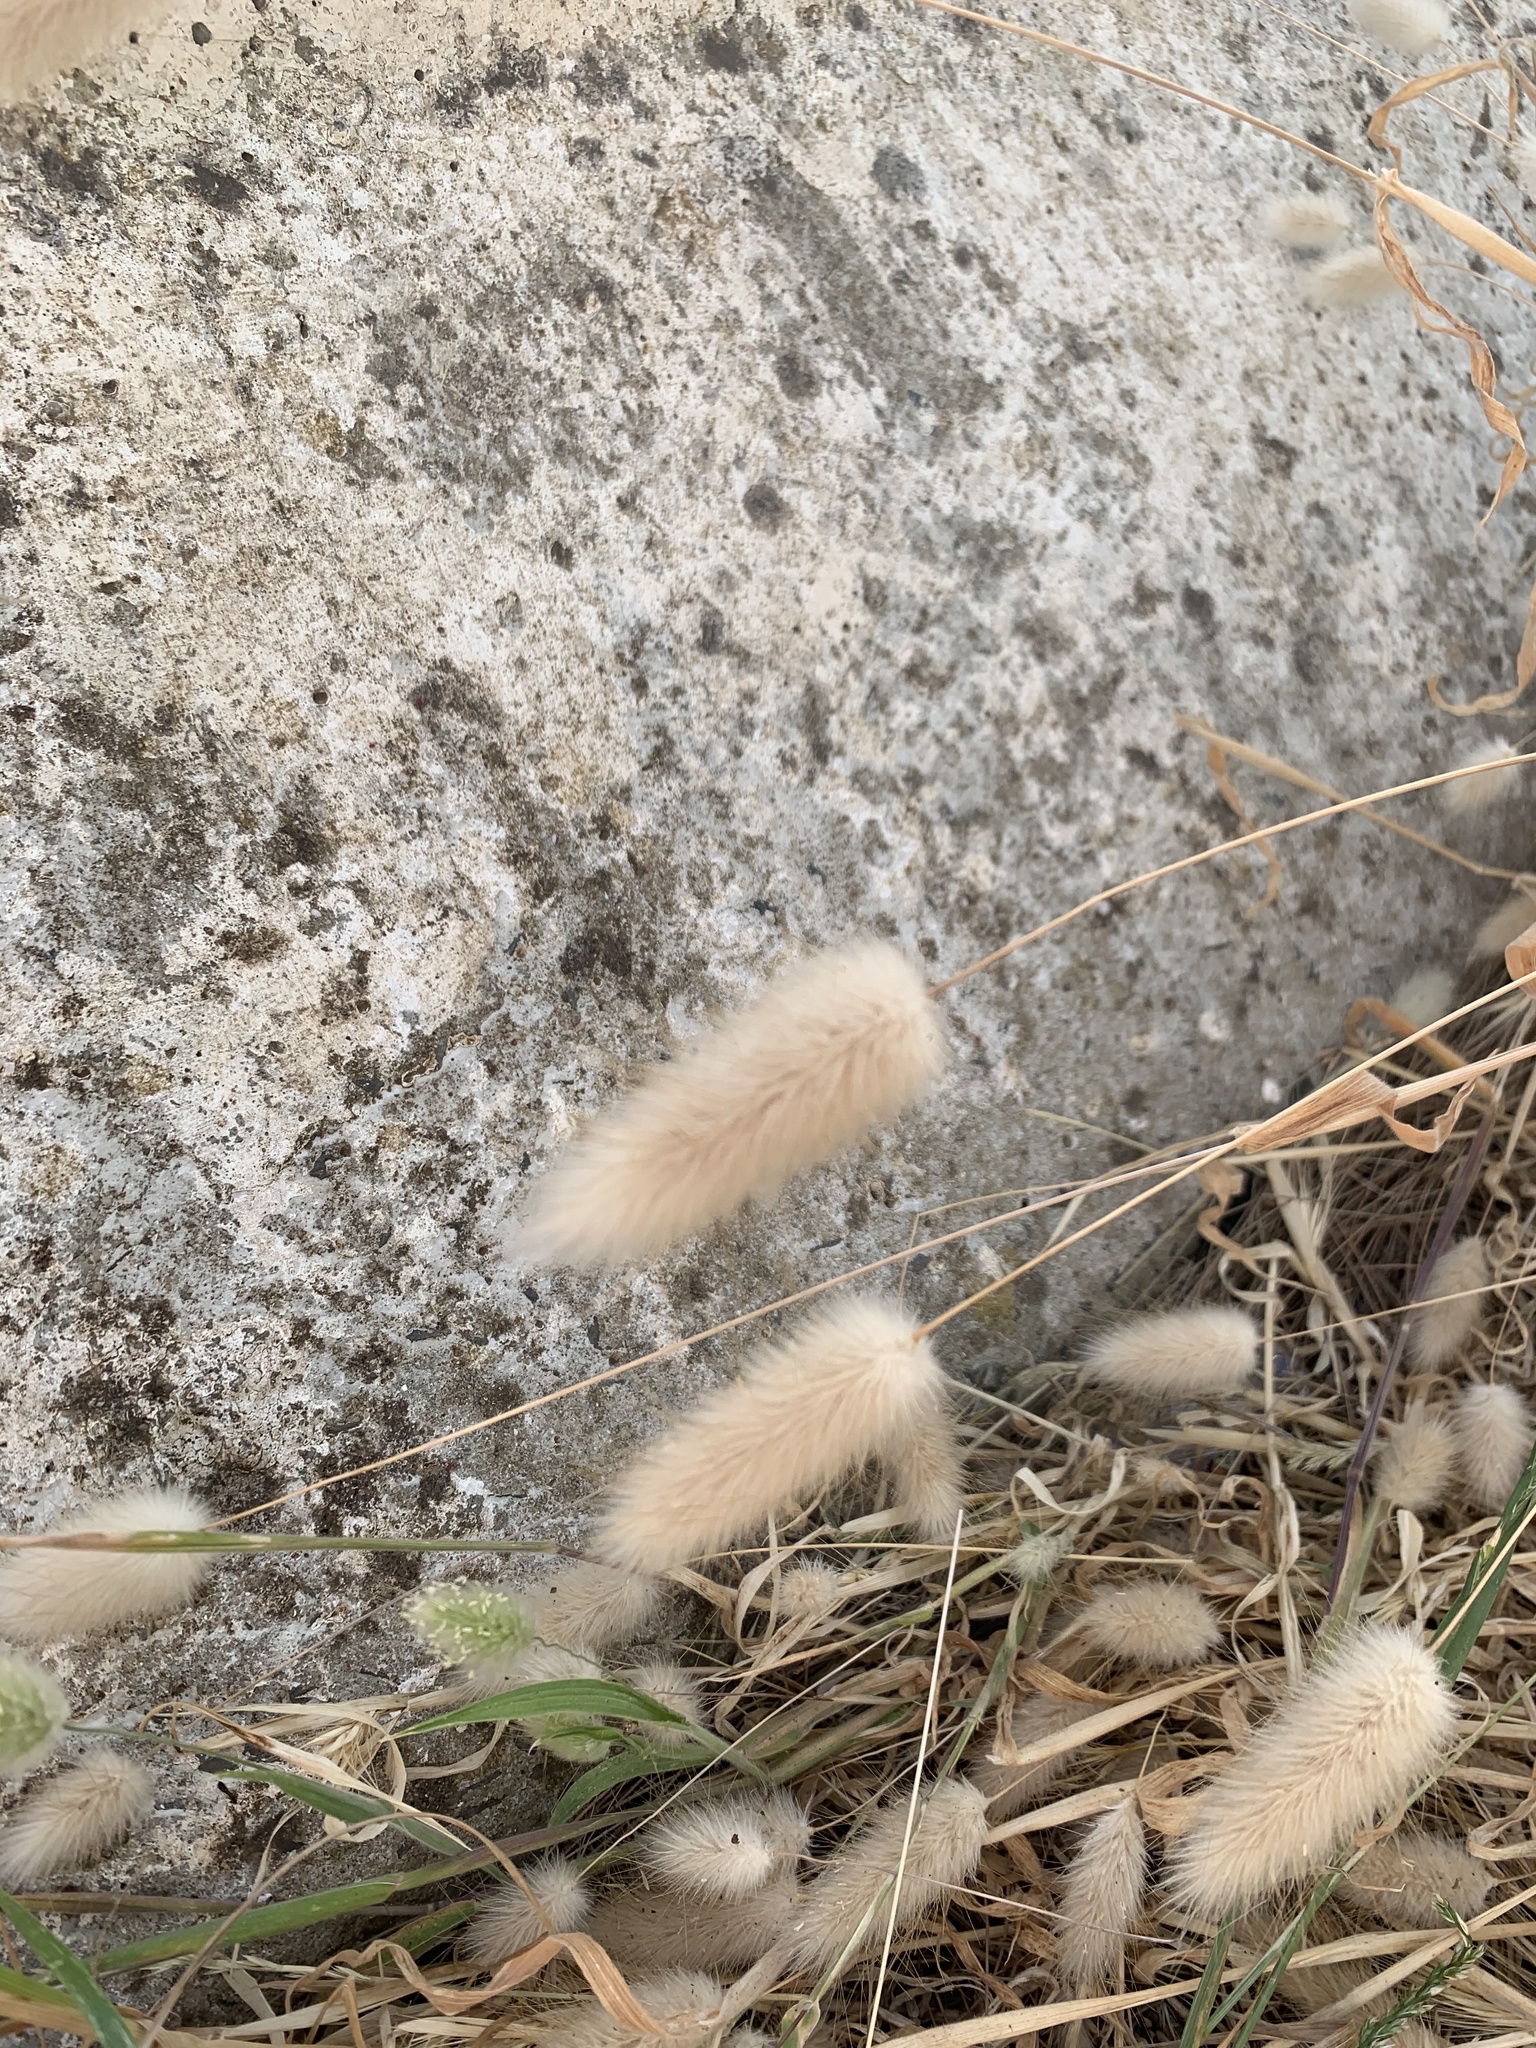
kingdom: Plantae
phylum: Tracheophyta
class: Liliopsida
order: Poales
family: Poaceae
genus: Lagurus
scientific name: Lagurus ovatus
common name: Hare's-tail
